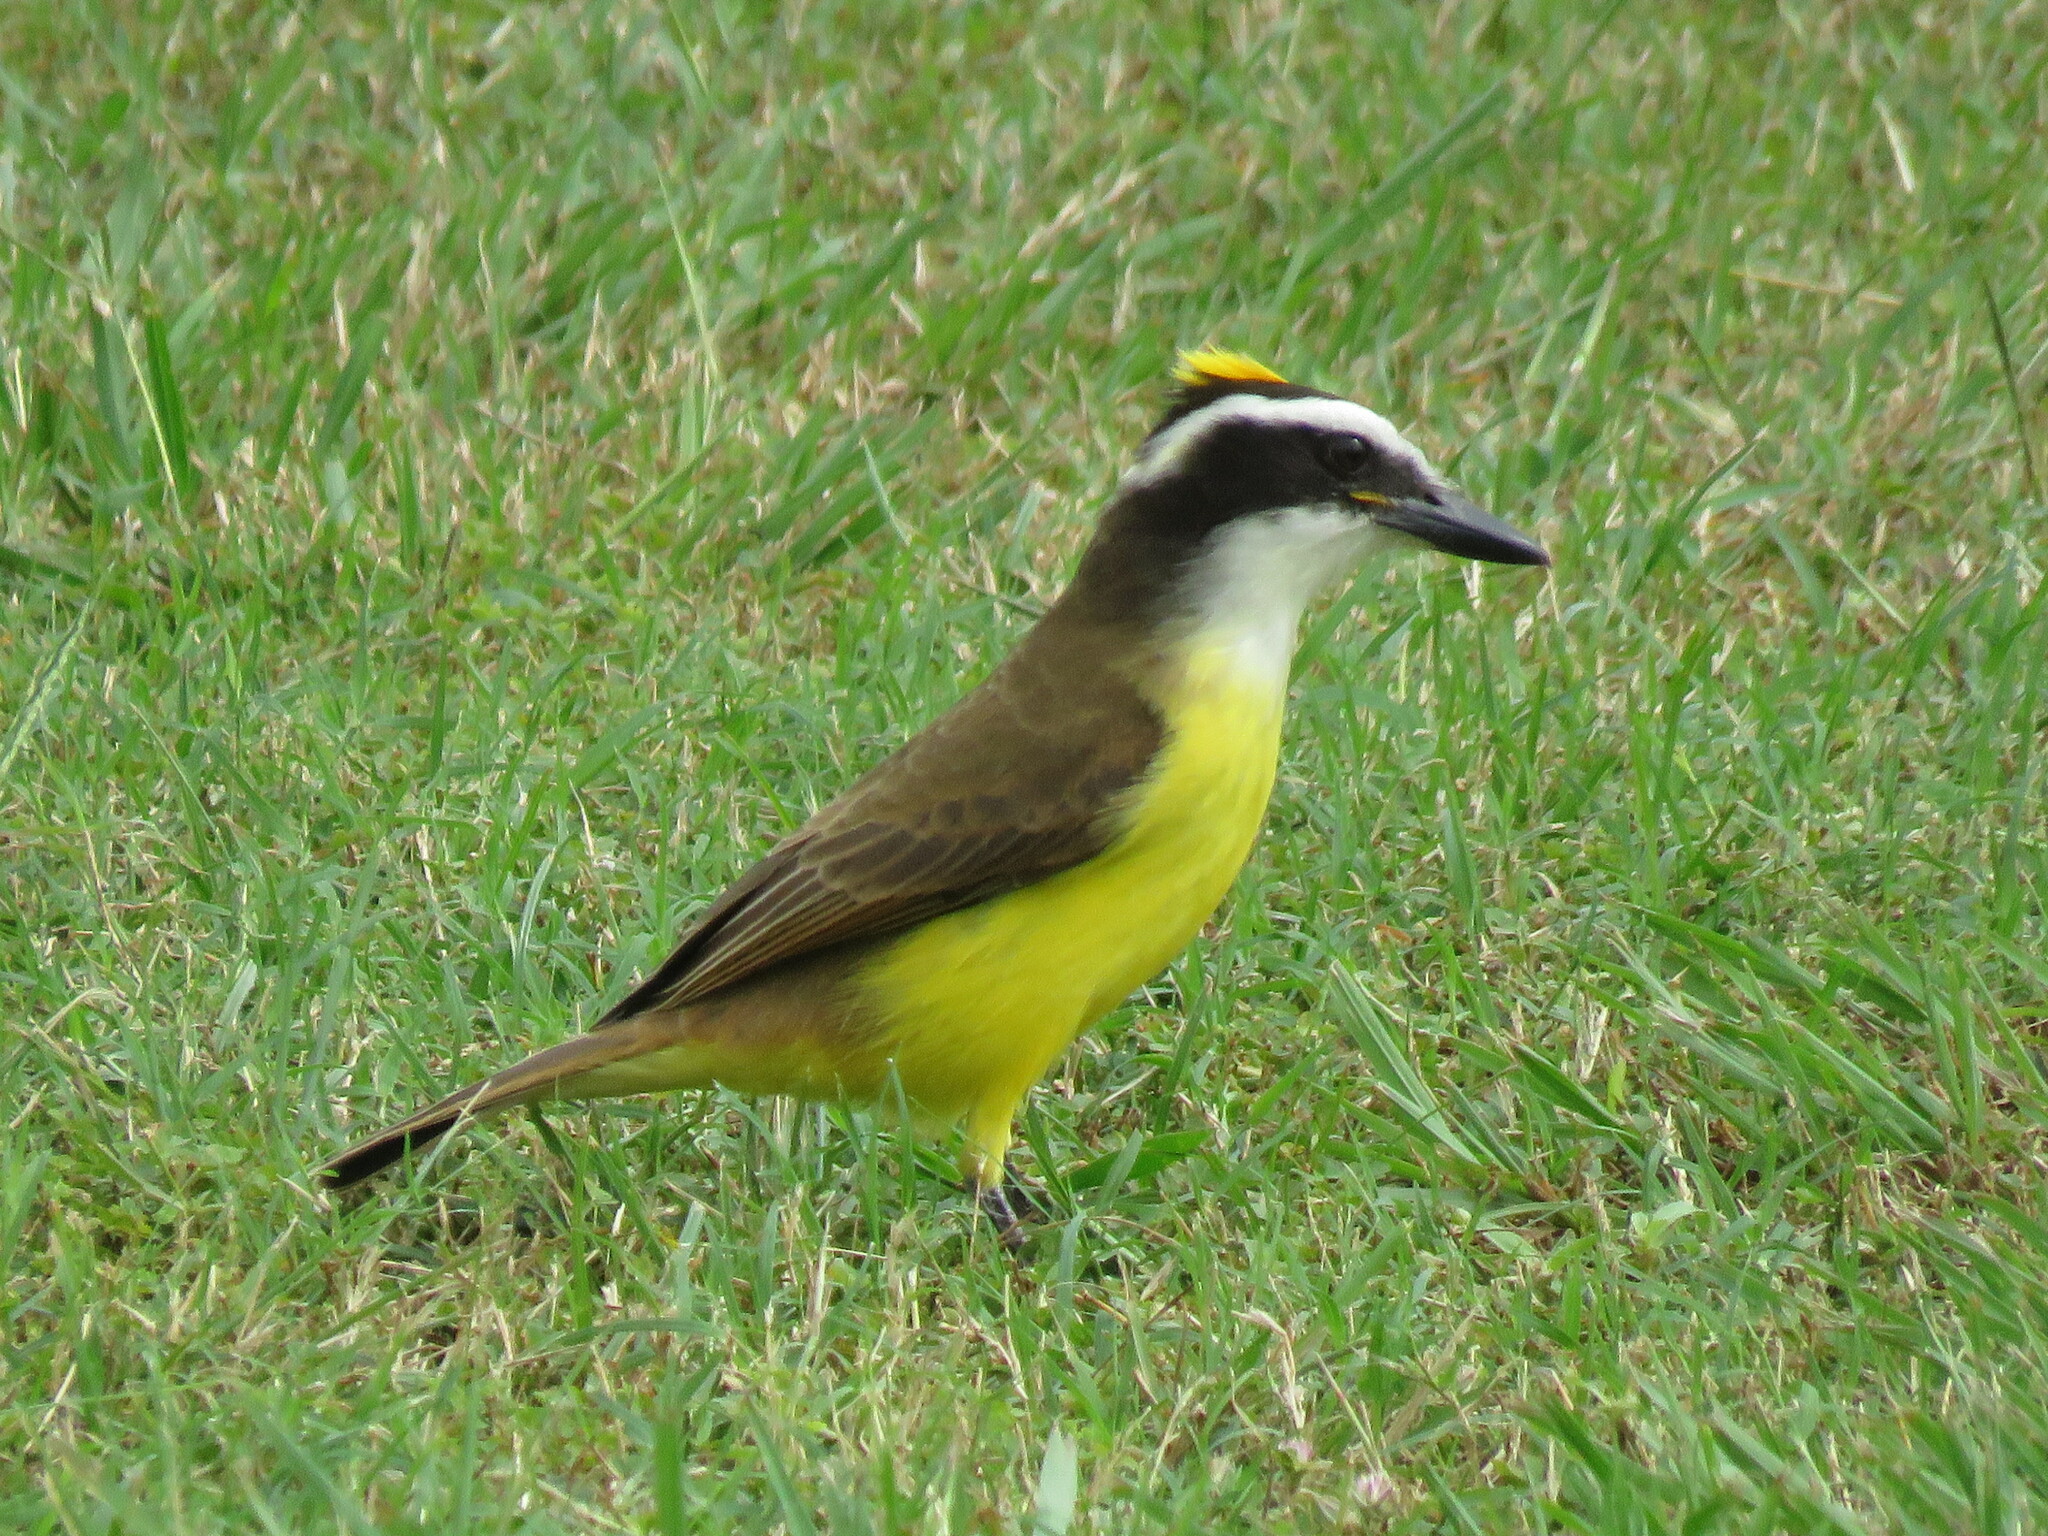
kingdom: Animalia
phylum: Chordata
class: Aves
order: Passeriformes
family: Tyrannidae
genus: Pitangus
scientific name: Pitangus sulphuratus
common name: Great kiskadee
